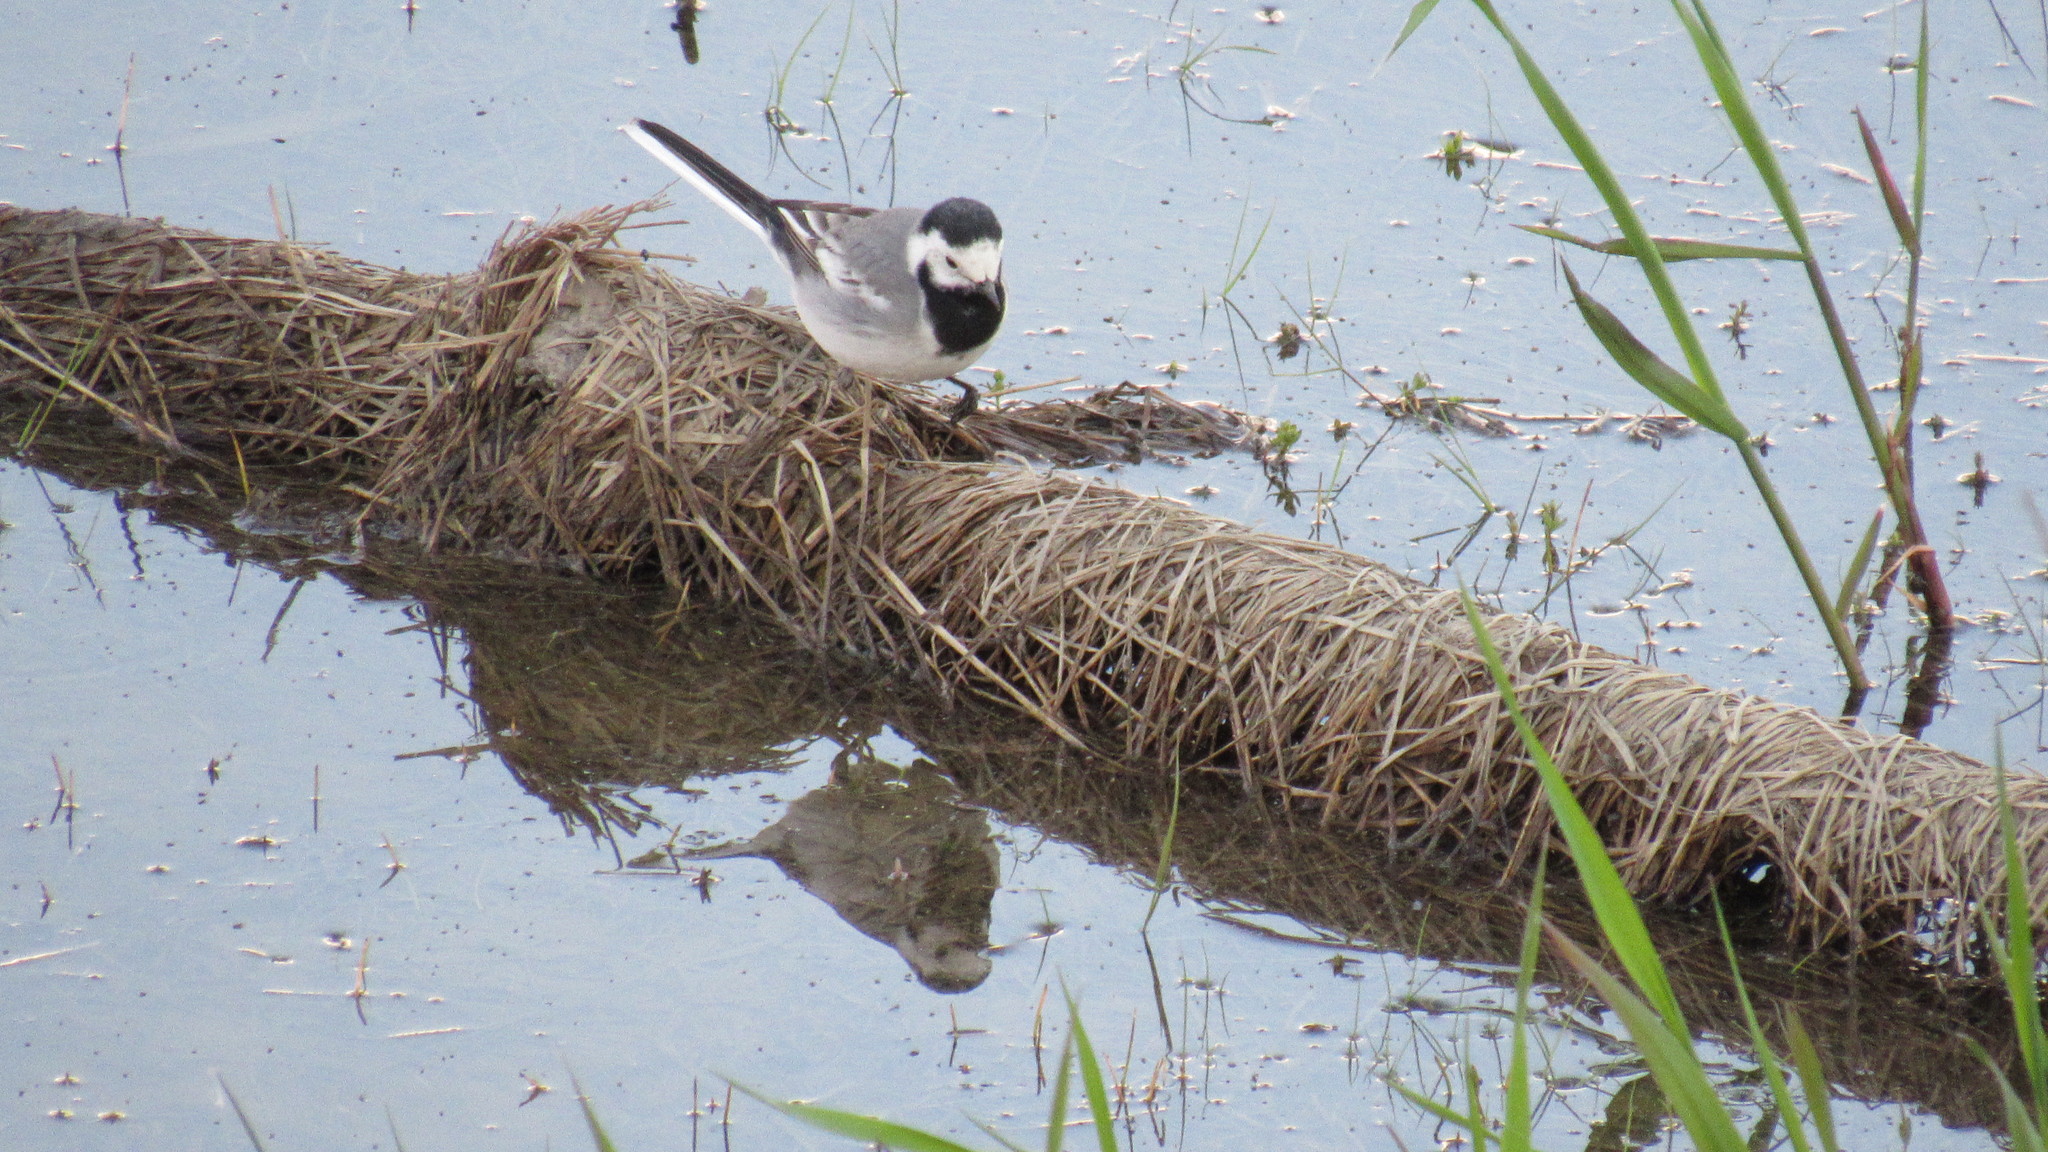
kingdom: Animalia
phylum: Chordata
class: Aves
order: Passeriformes
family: Motacillidae
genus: Motacilla
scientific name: Motacilla alba
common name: White wagtail
